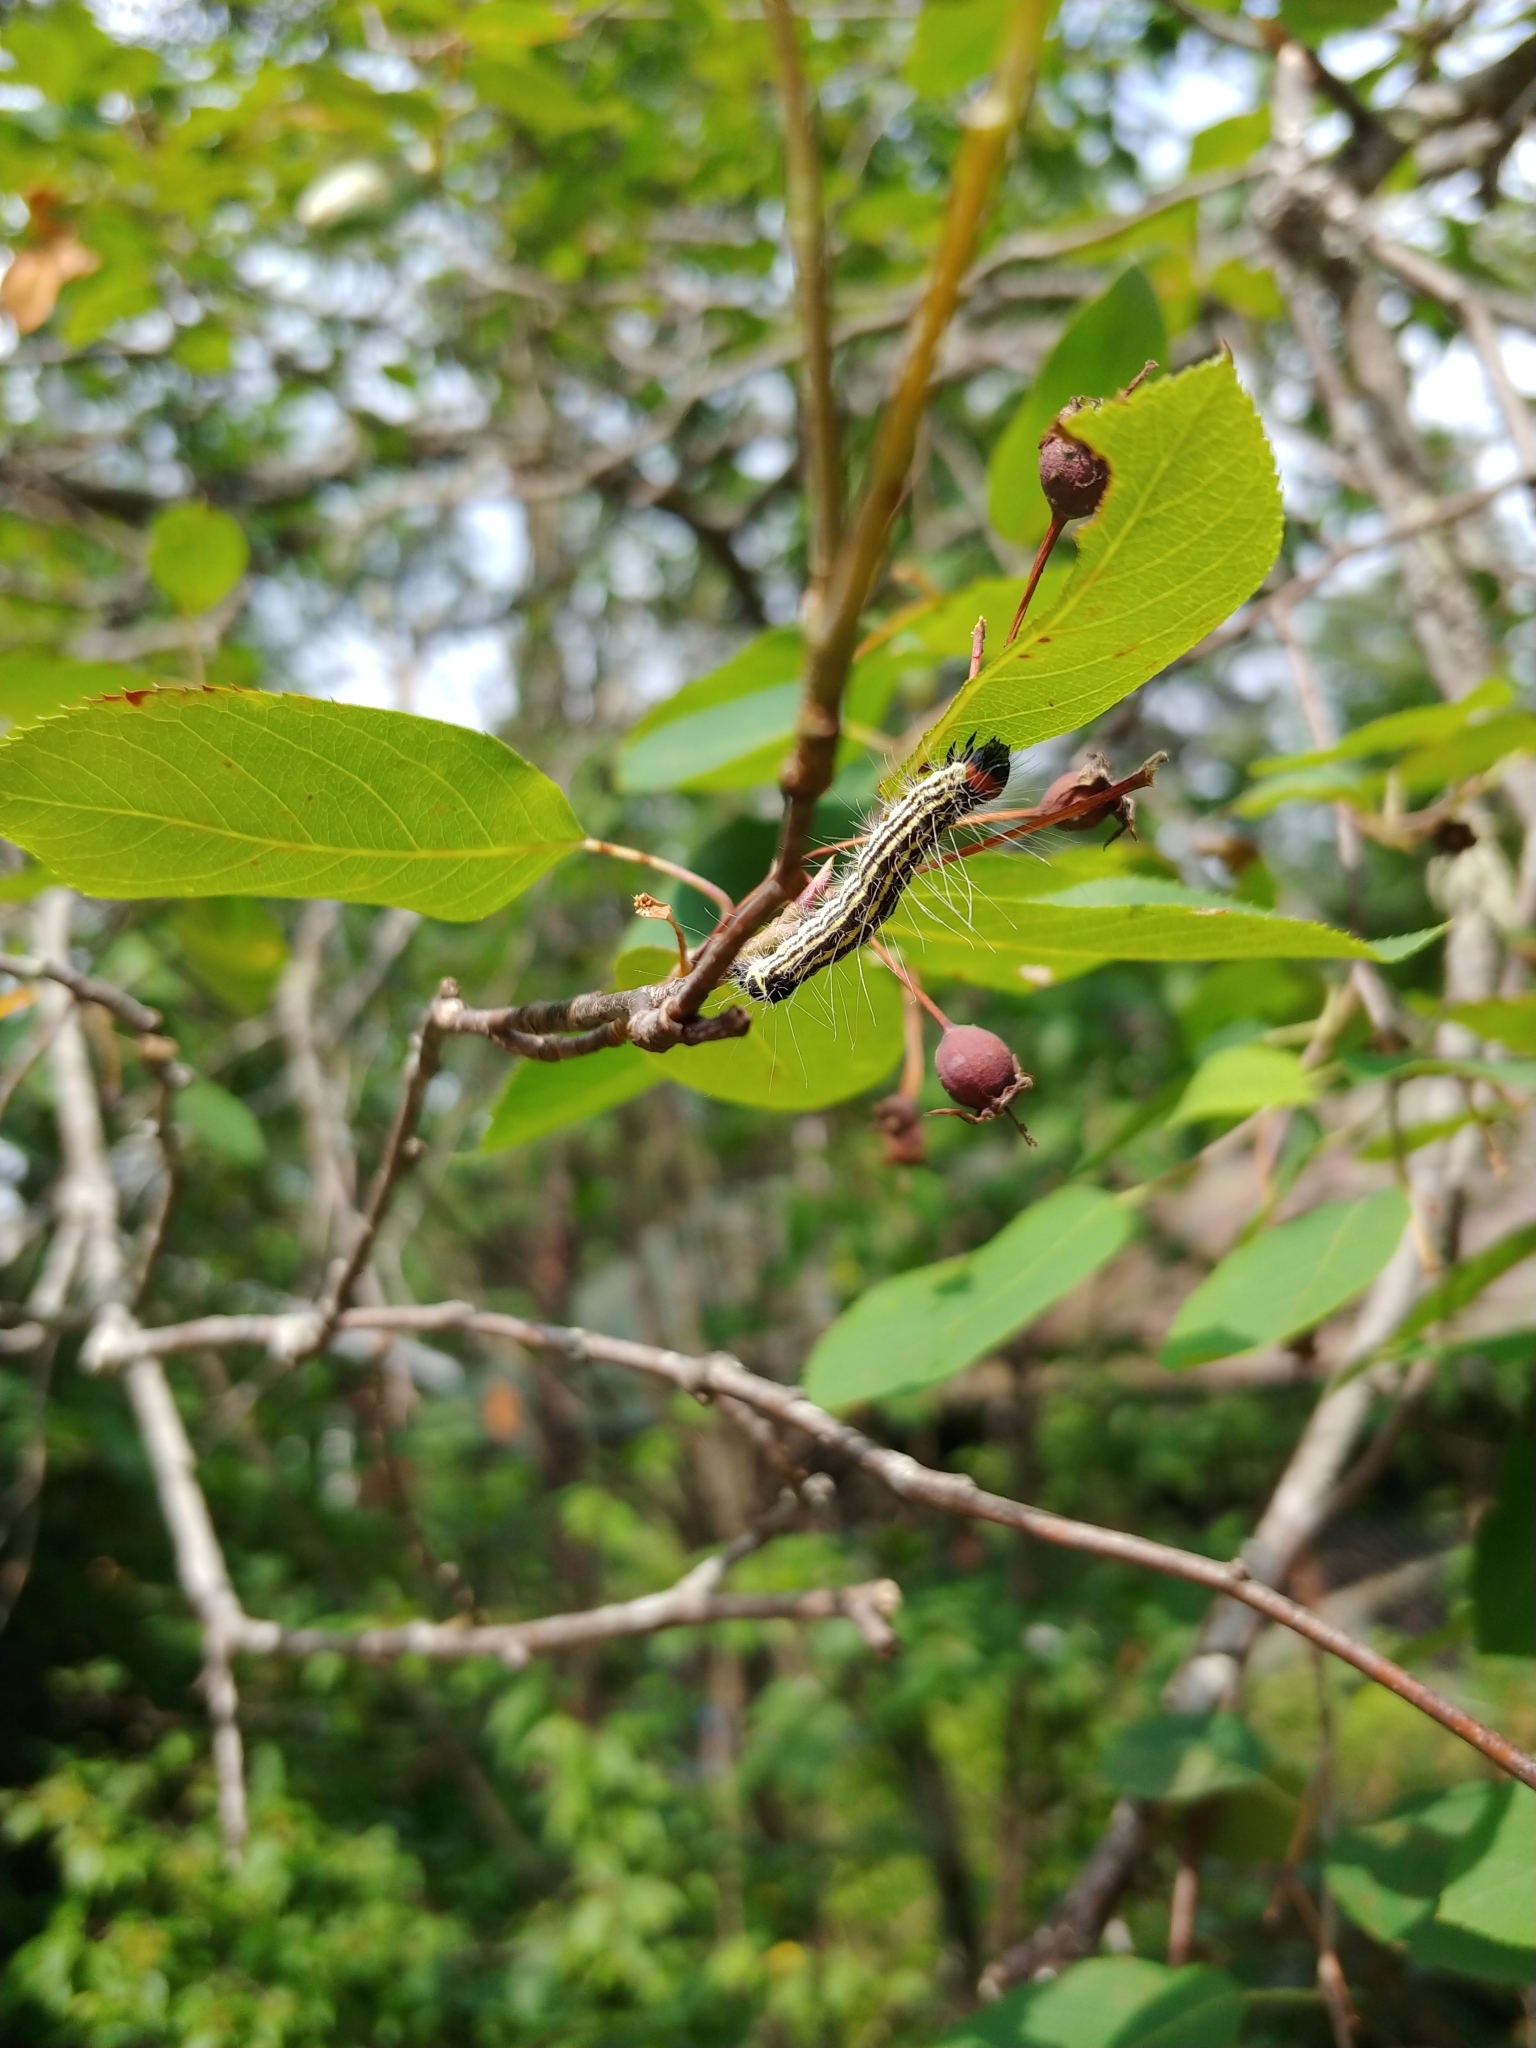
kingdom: Animalia
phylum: Arthropoda
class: Insecta
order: Lepidoptera
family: Noctuidae
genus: Acronicta
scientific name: Acronicta radcliffei
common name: Radcliffe's dagger
